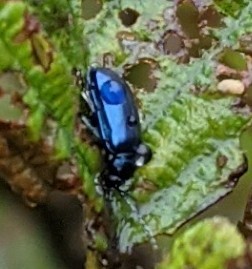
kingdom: Animalia
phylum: Arthropoda
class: Insecta
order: Coleoptera
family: Chrysomelidae
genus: Altica
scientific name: Altica ambiens
